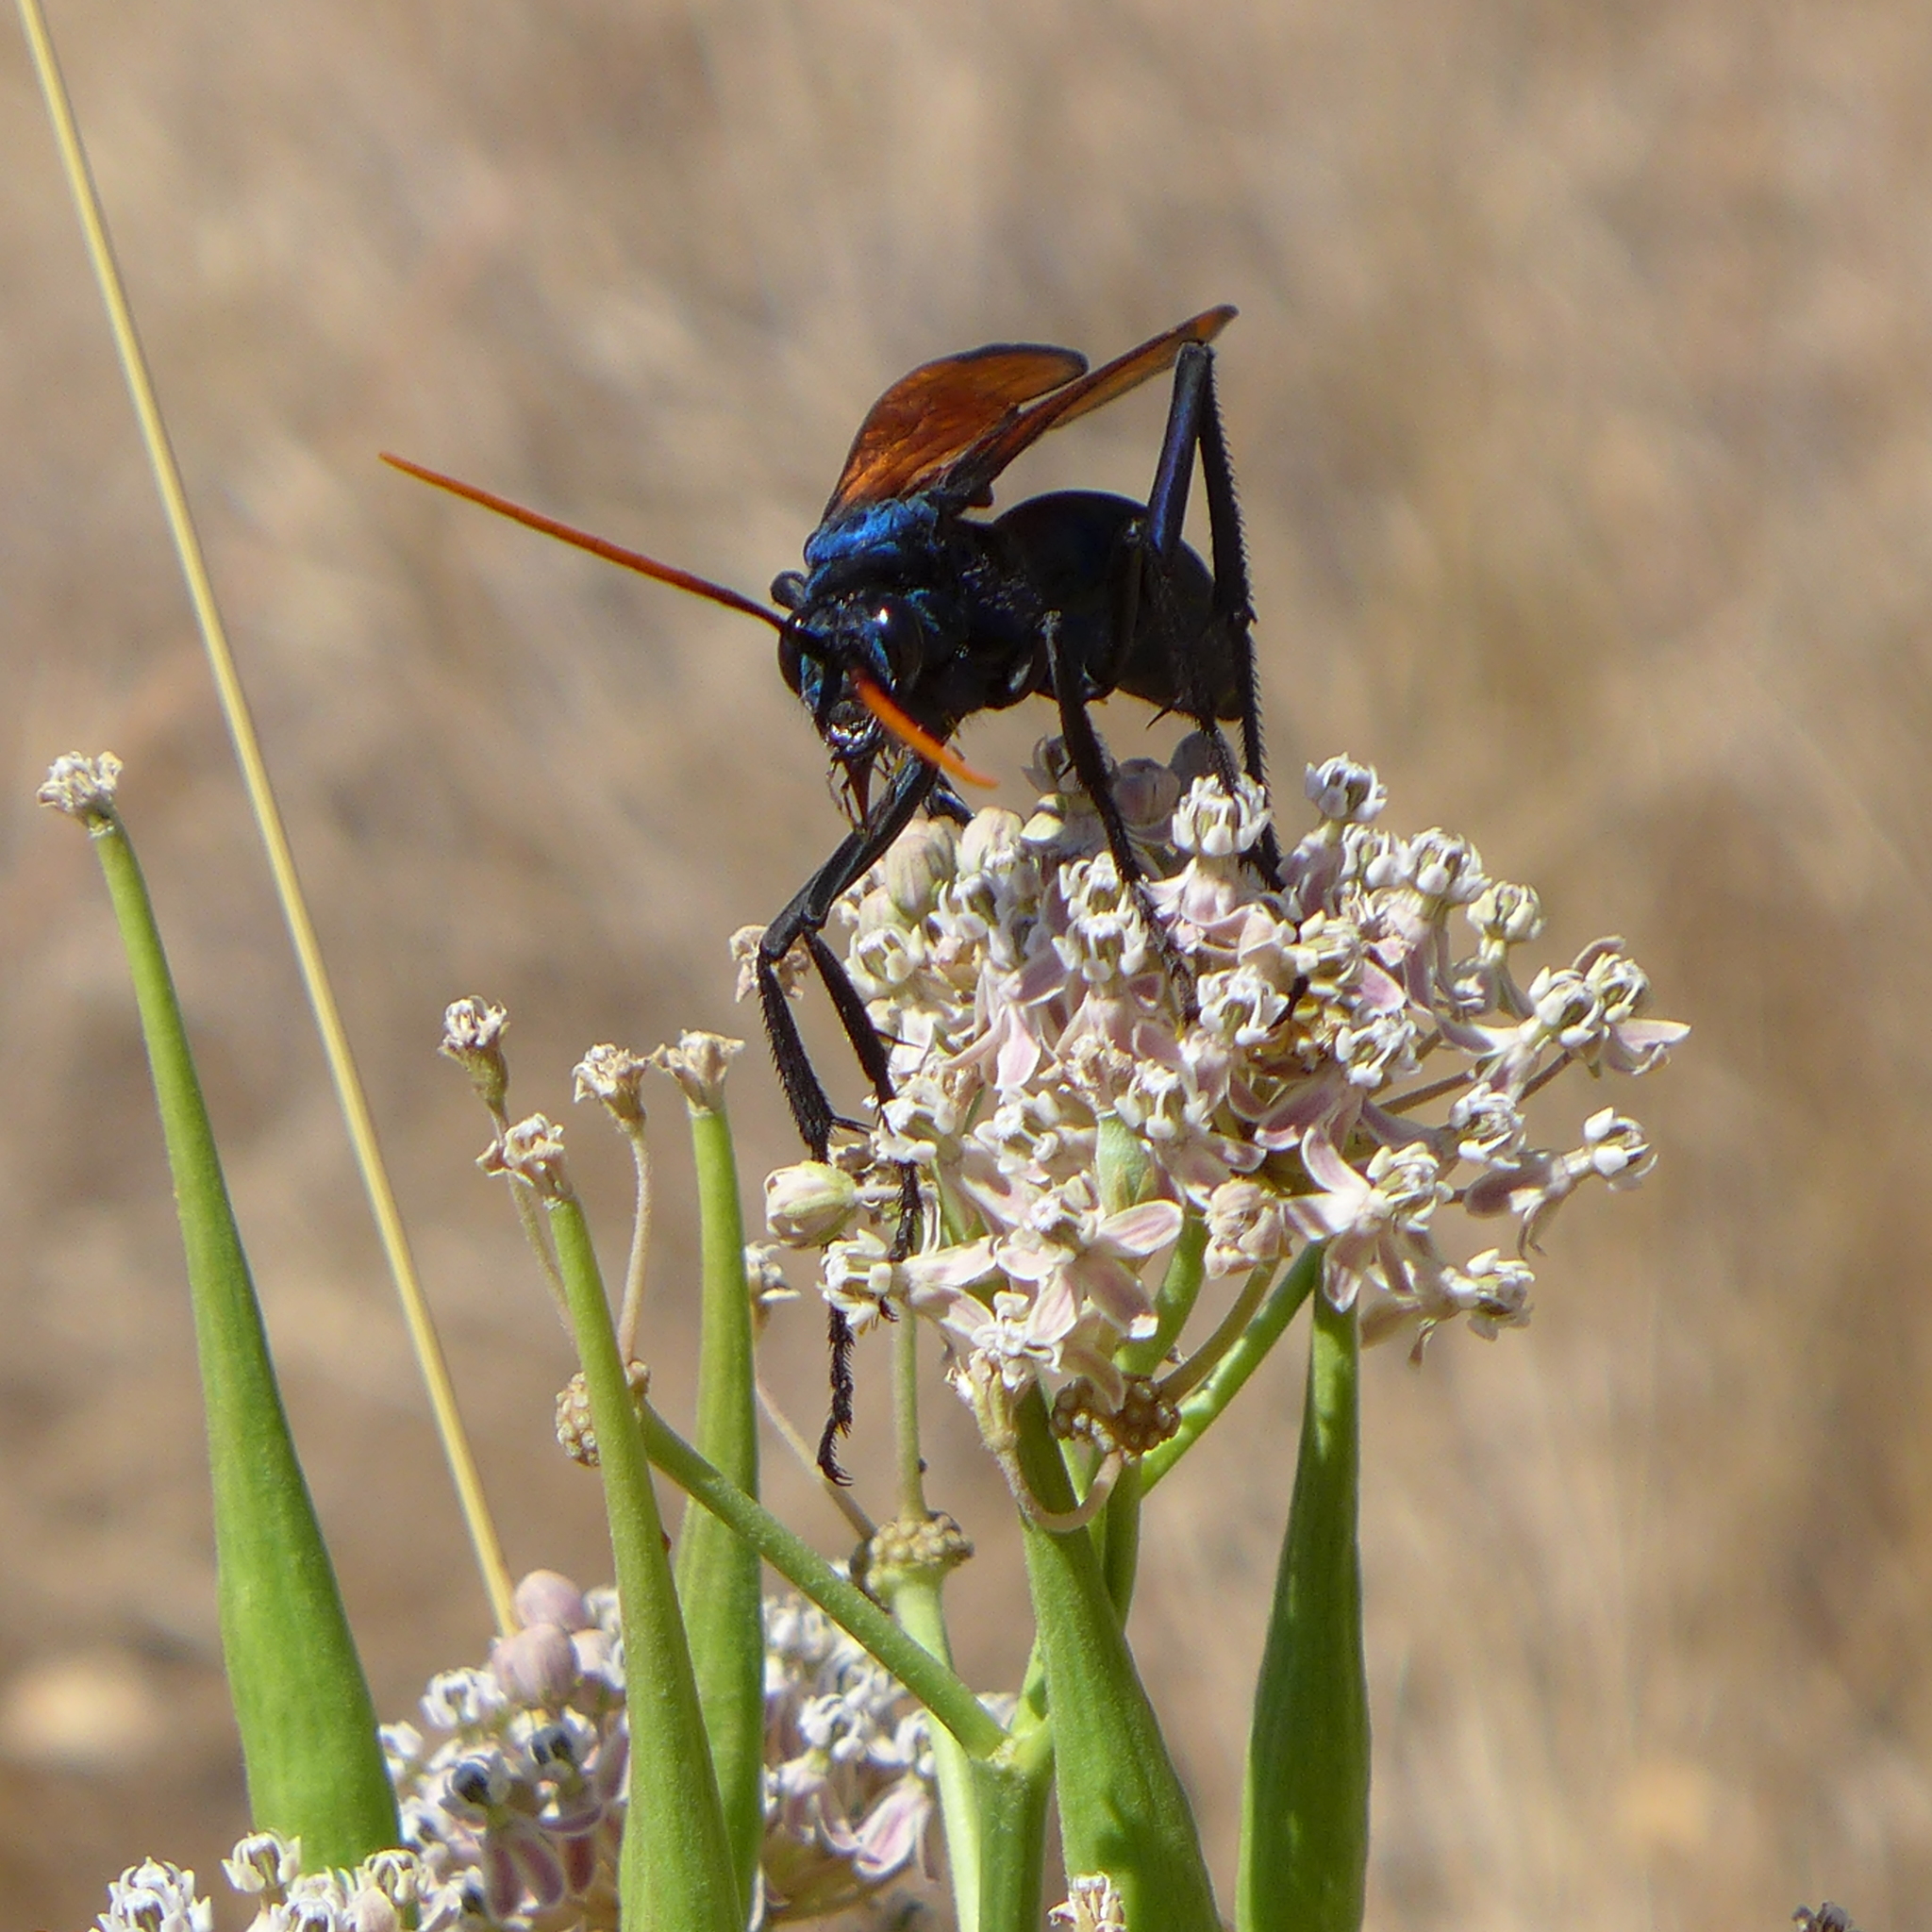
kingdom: Animalia
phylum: Arthropoda
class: Insecta
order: Hymenoptera
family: Pompilidae
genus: Pepsis
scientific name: Pepsis mildei
